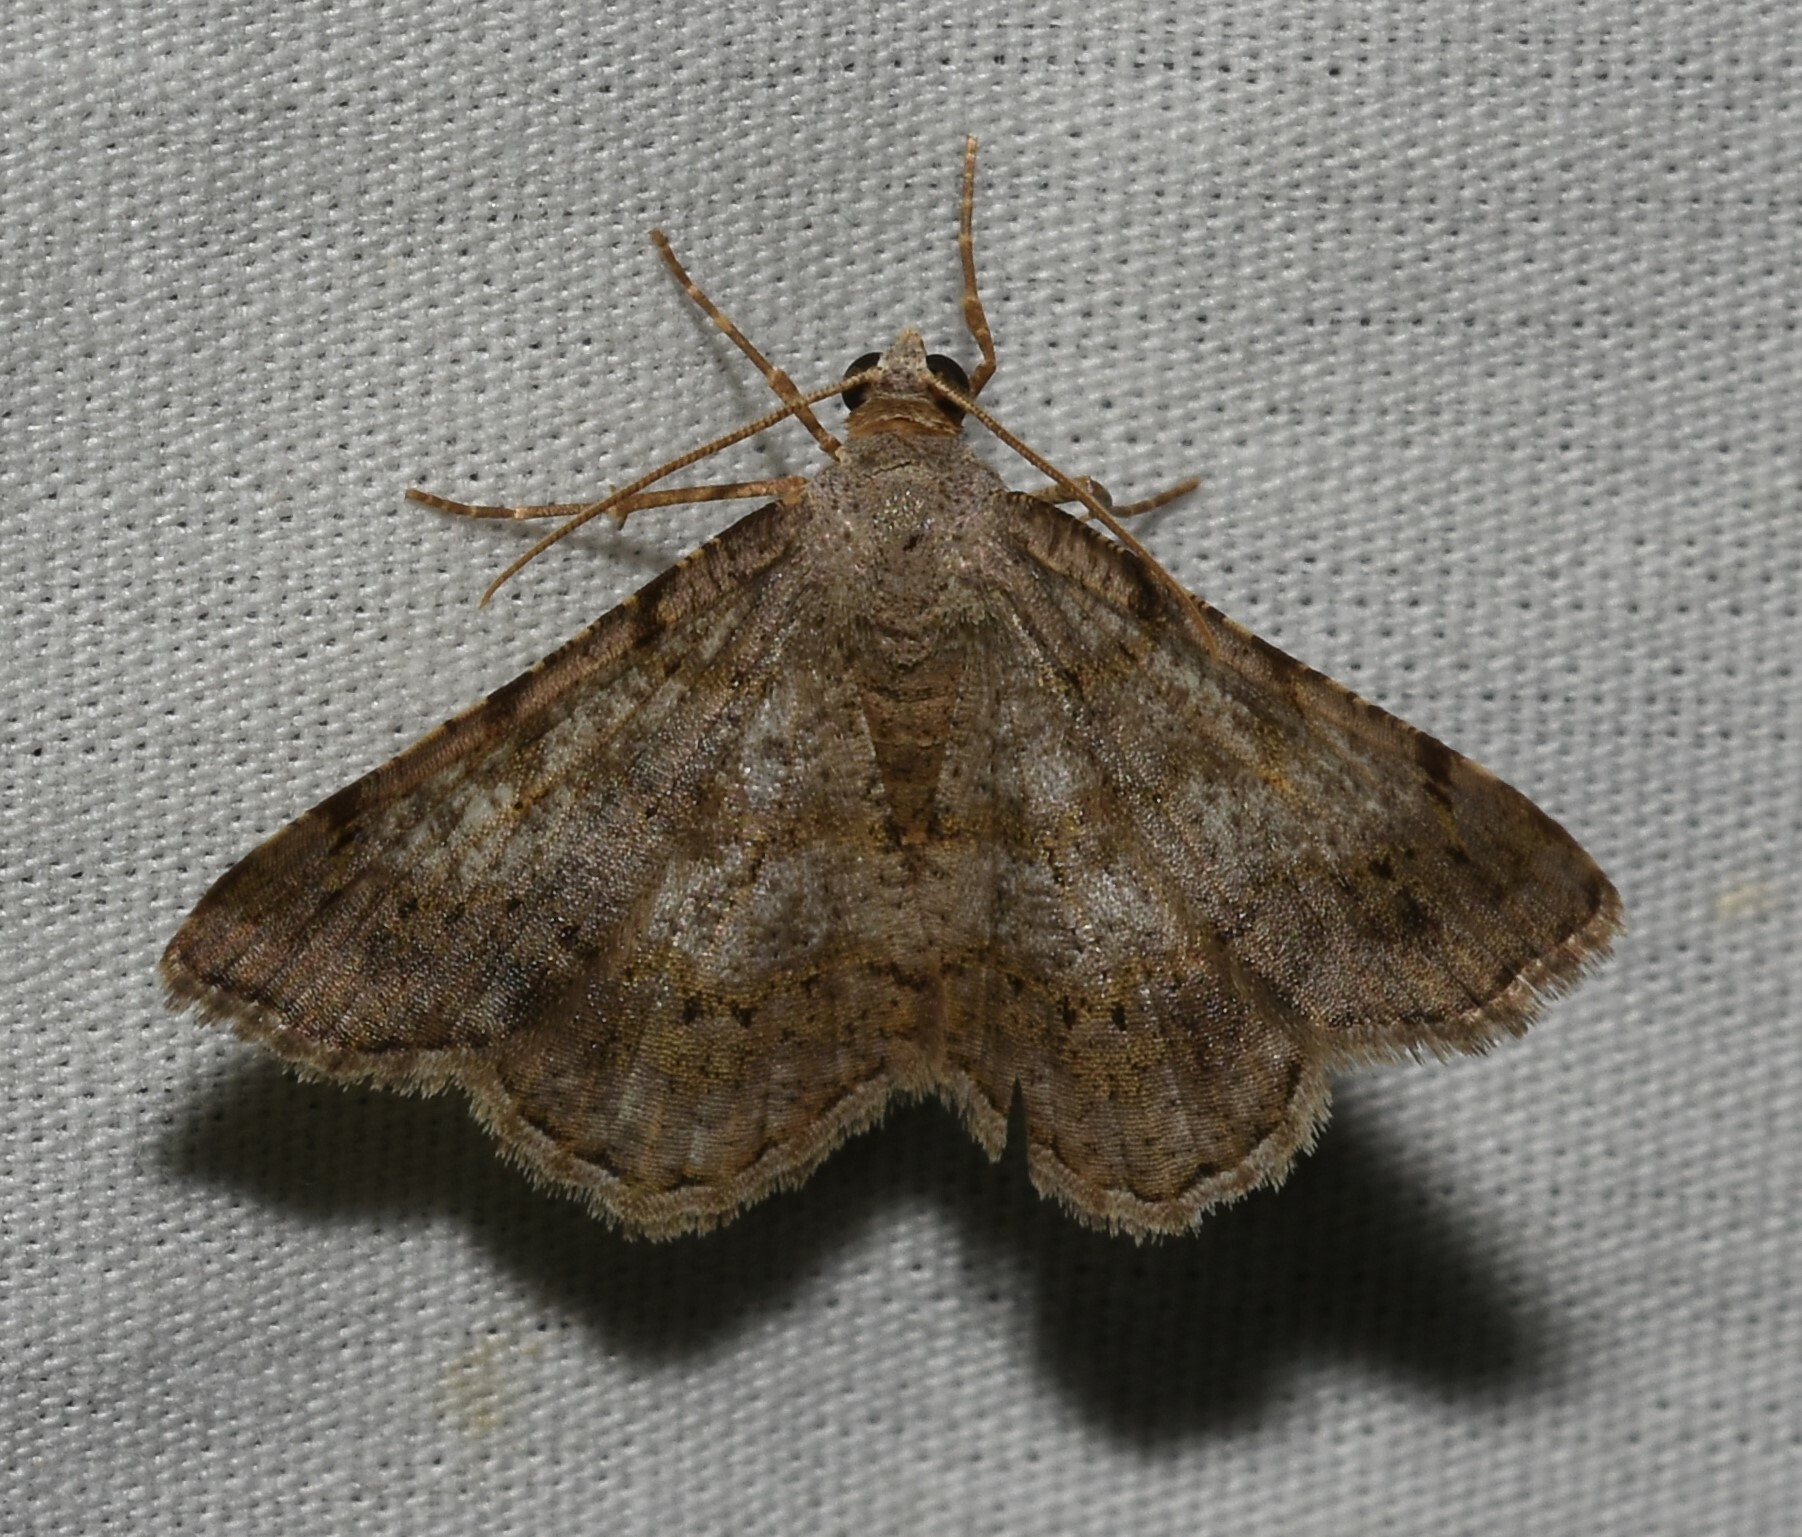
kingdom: Animalia
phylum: Arthropoda
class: Insecta
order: Lepidoptera
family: Geometridae
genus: Digrammia
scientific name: Digrammia ocellinata
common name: Faint-spotted angle
